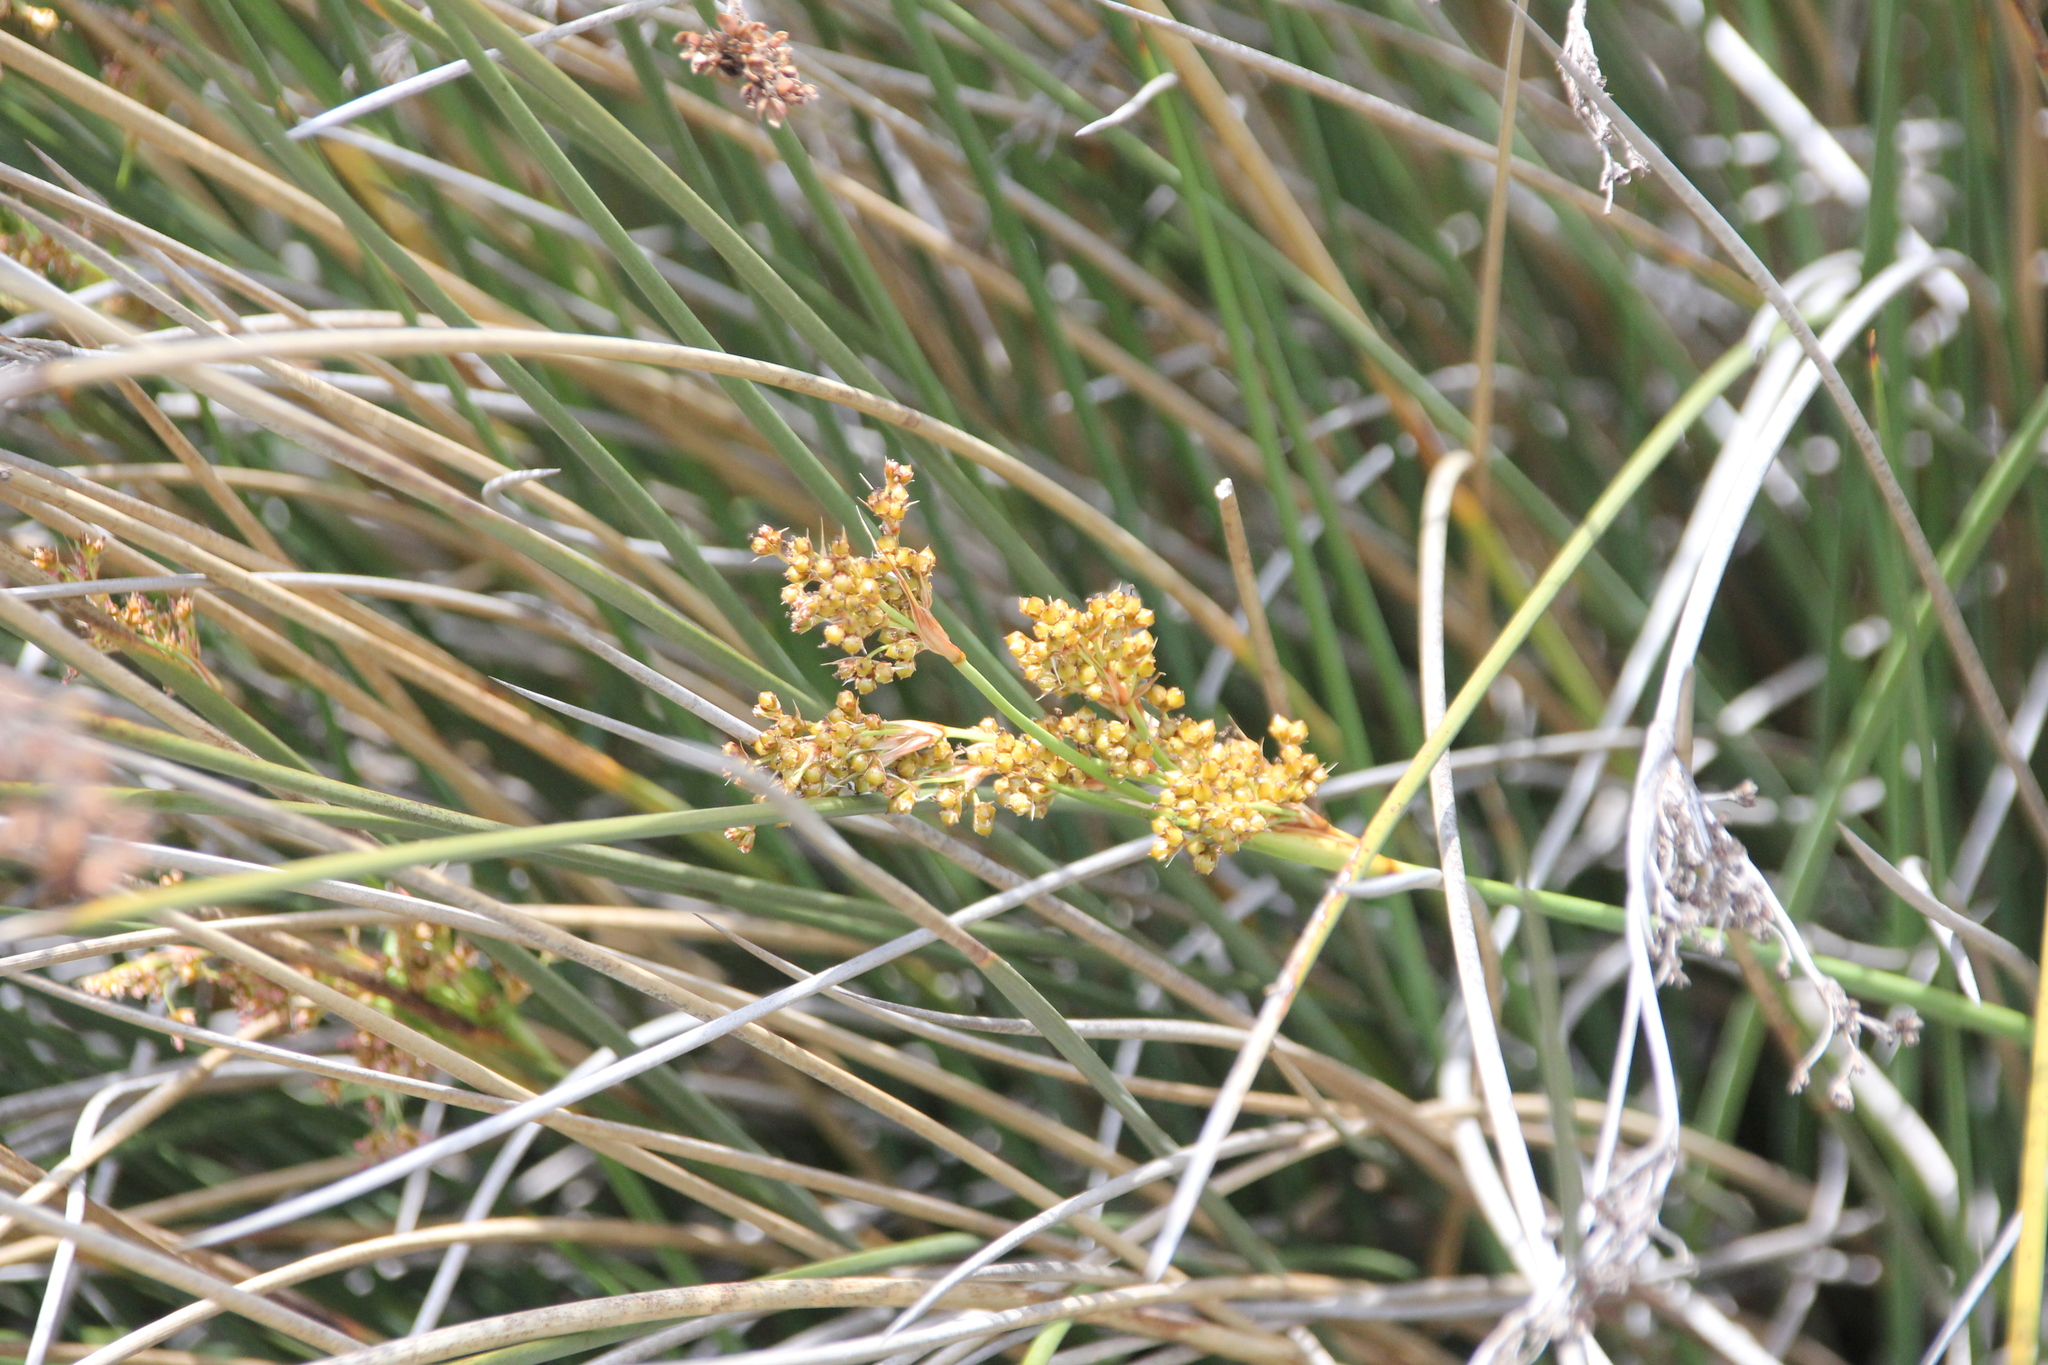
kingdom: Plantae
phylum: Tracheophyta
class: Liliopsida
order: Poales
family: Juncaceae
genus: Juncus
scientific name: Juncus acutus
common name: Sharp rush
